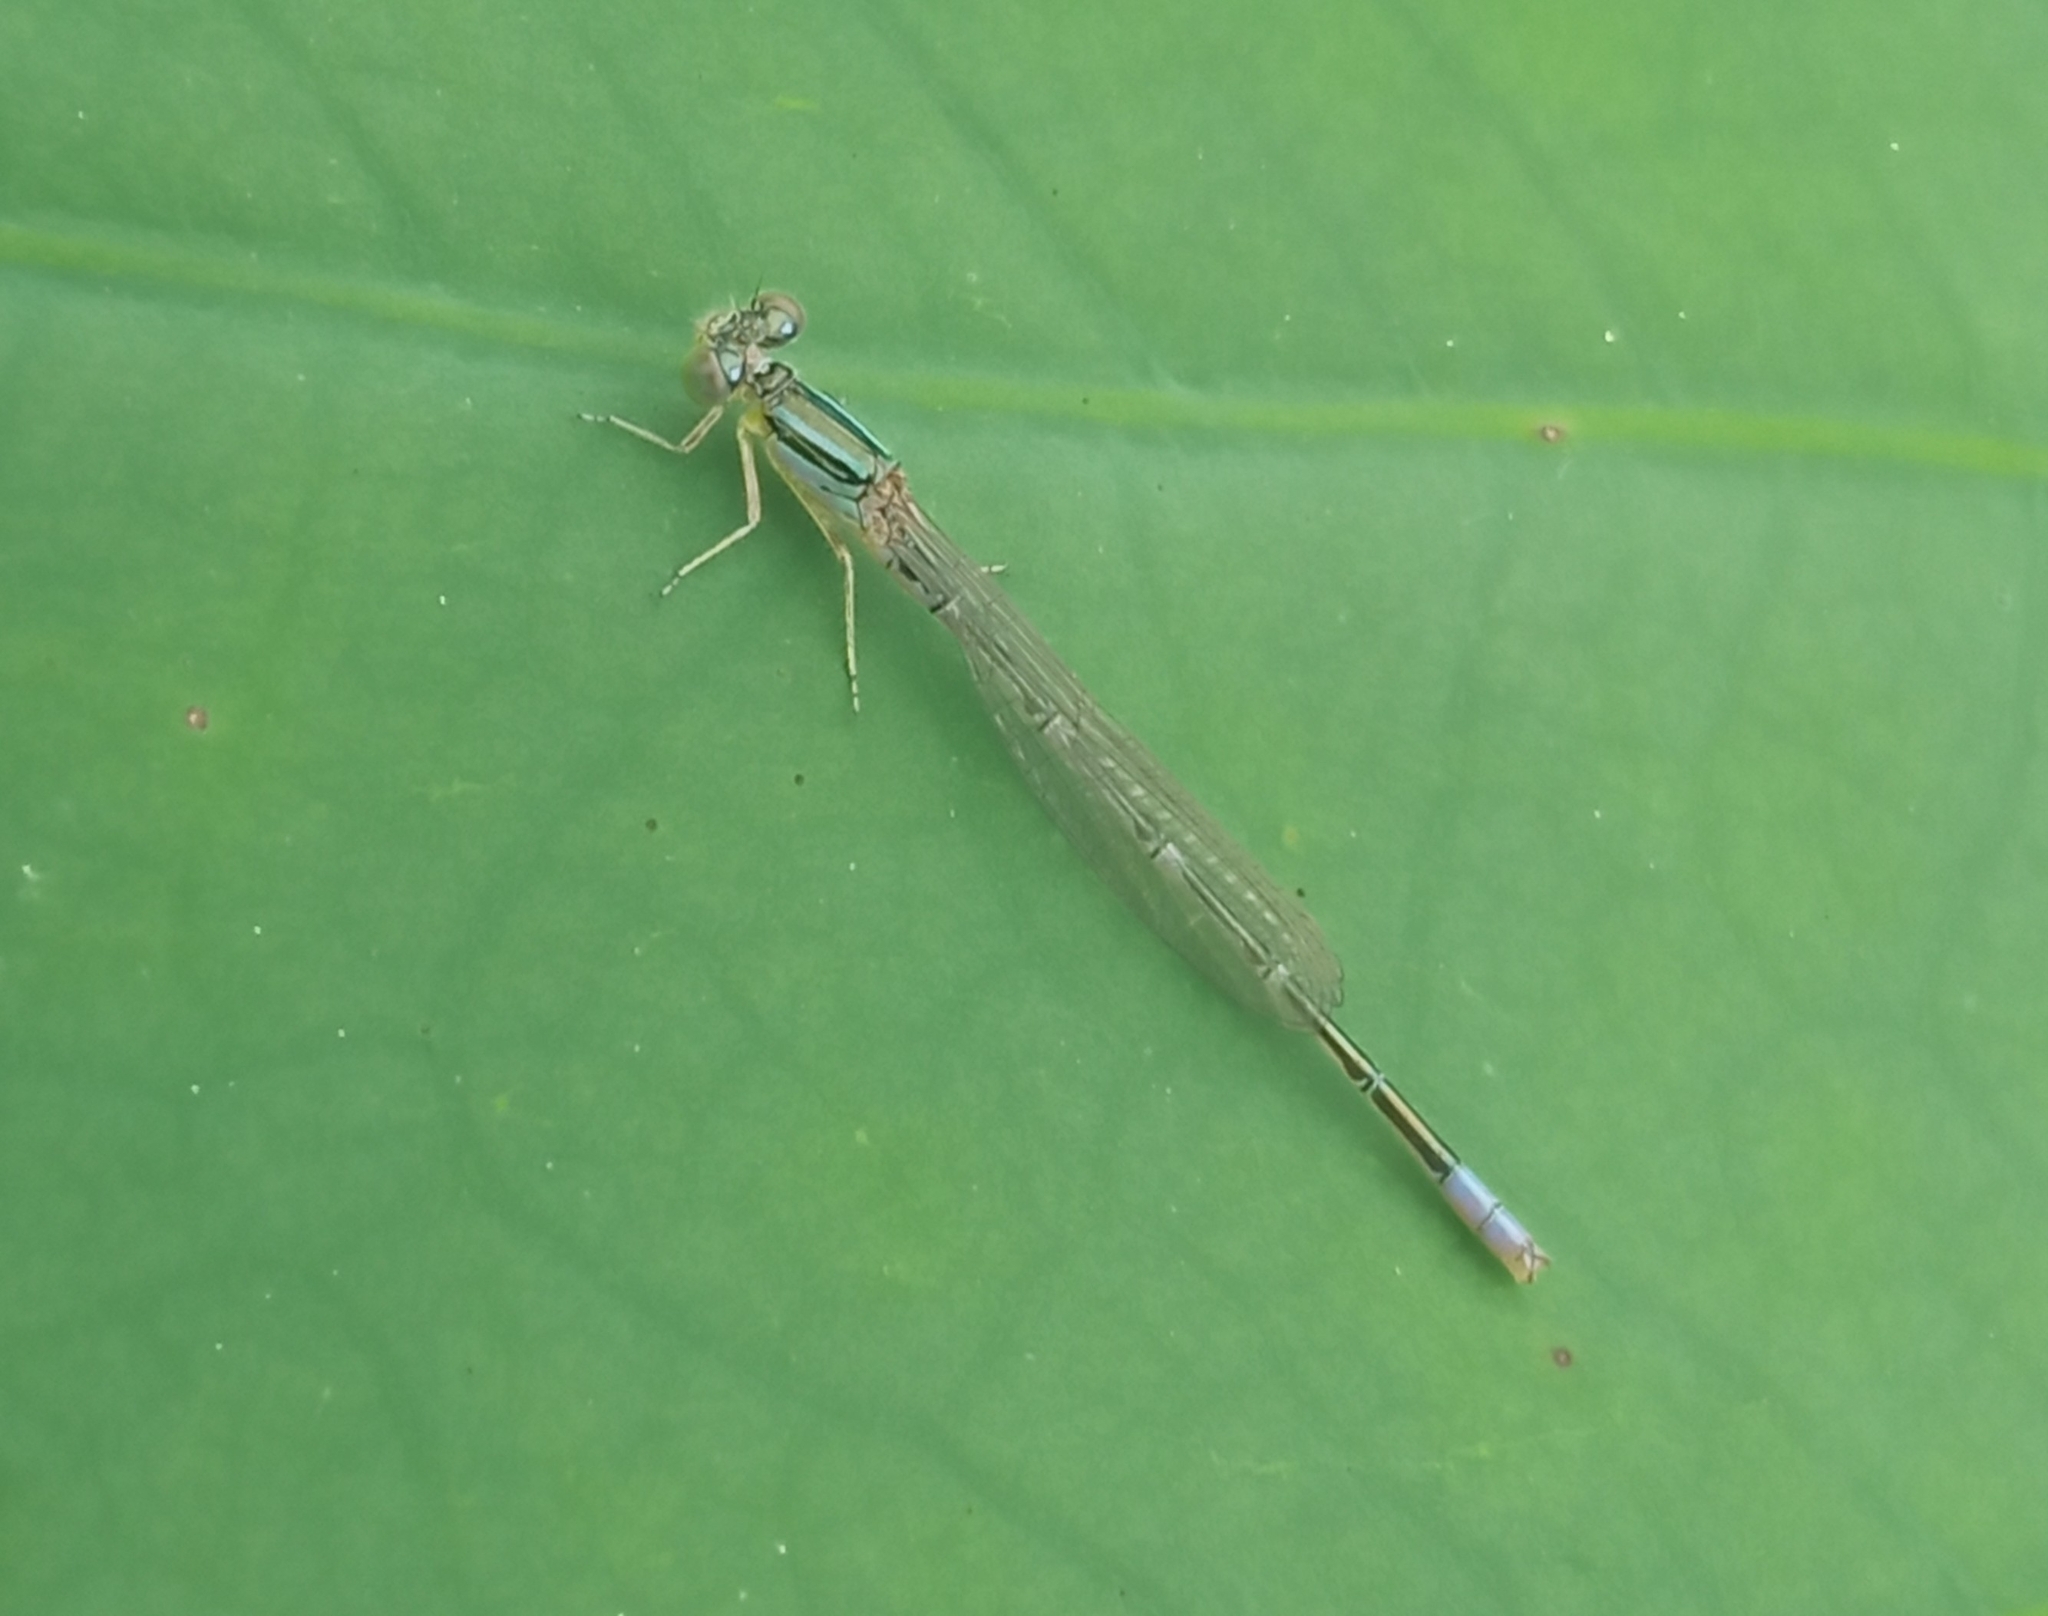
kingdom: Animalia
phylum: Arthropoda
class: Insecta
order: Odonata
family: Coenagrionidae
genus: Paracercion
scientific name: Paracercion hieroglyphicum
